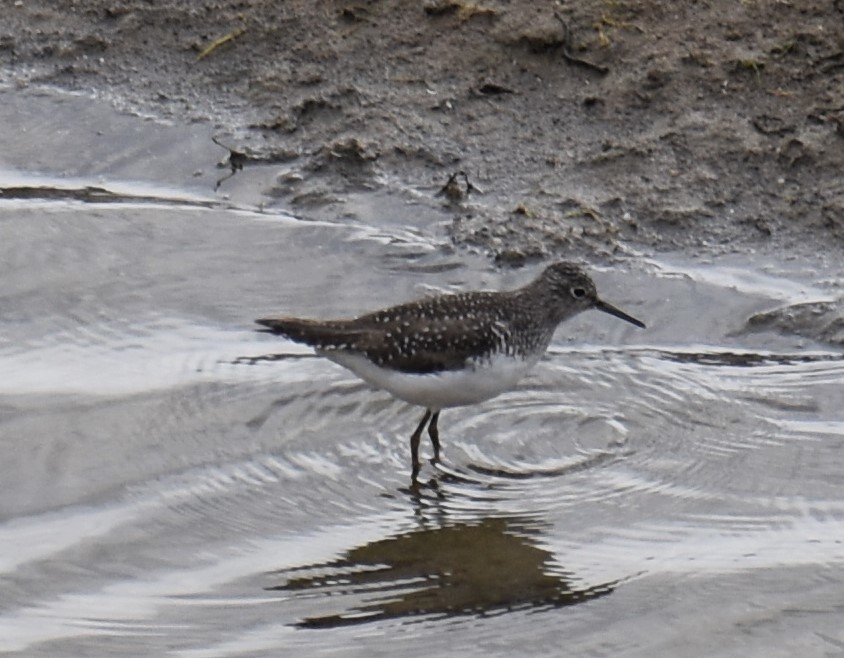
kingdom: Animalia
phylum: Chordata
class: Aves
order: Charadriiformes
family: Scolopacidae
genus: Tringa
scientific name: Tringa solitaria
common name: Solitary sandpiper
